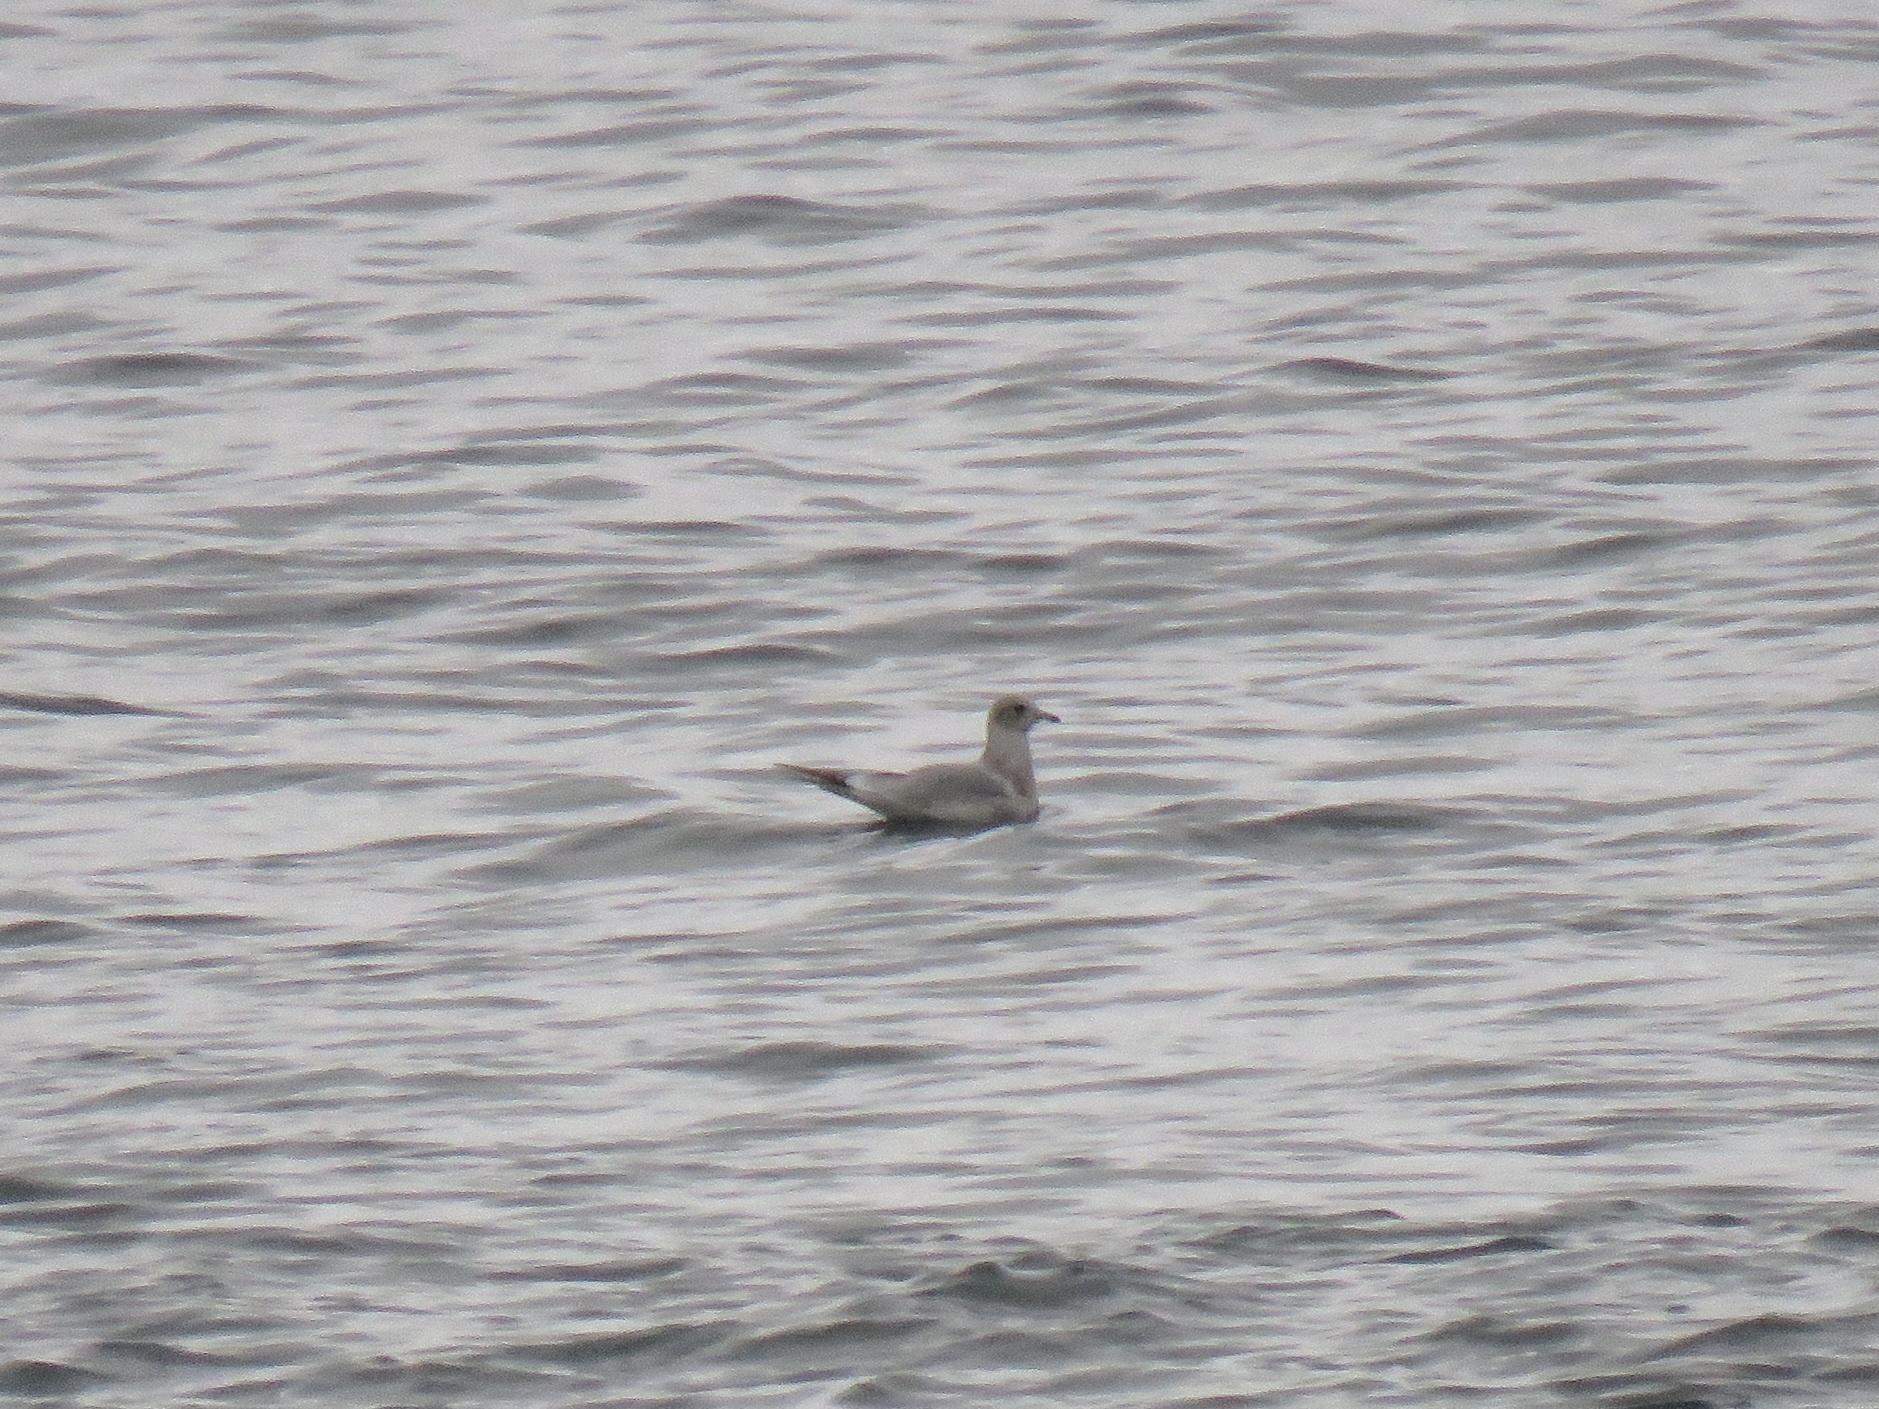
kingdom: Animalia
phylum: Chordata
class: Aves
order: Charadriiformes
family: Laridae
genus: Larus
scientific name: Larus brachyrhynchus
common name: Short-billed gull
